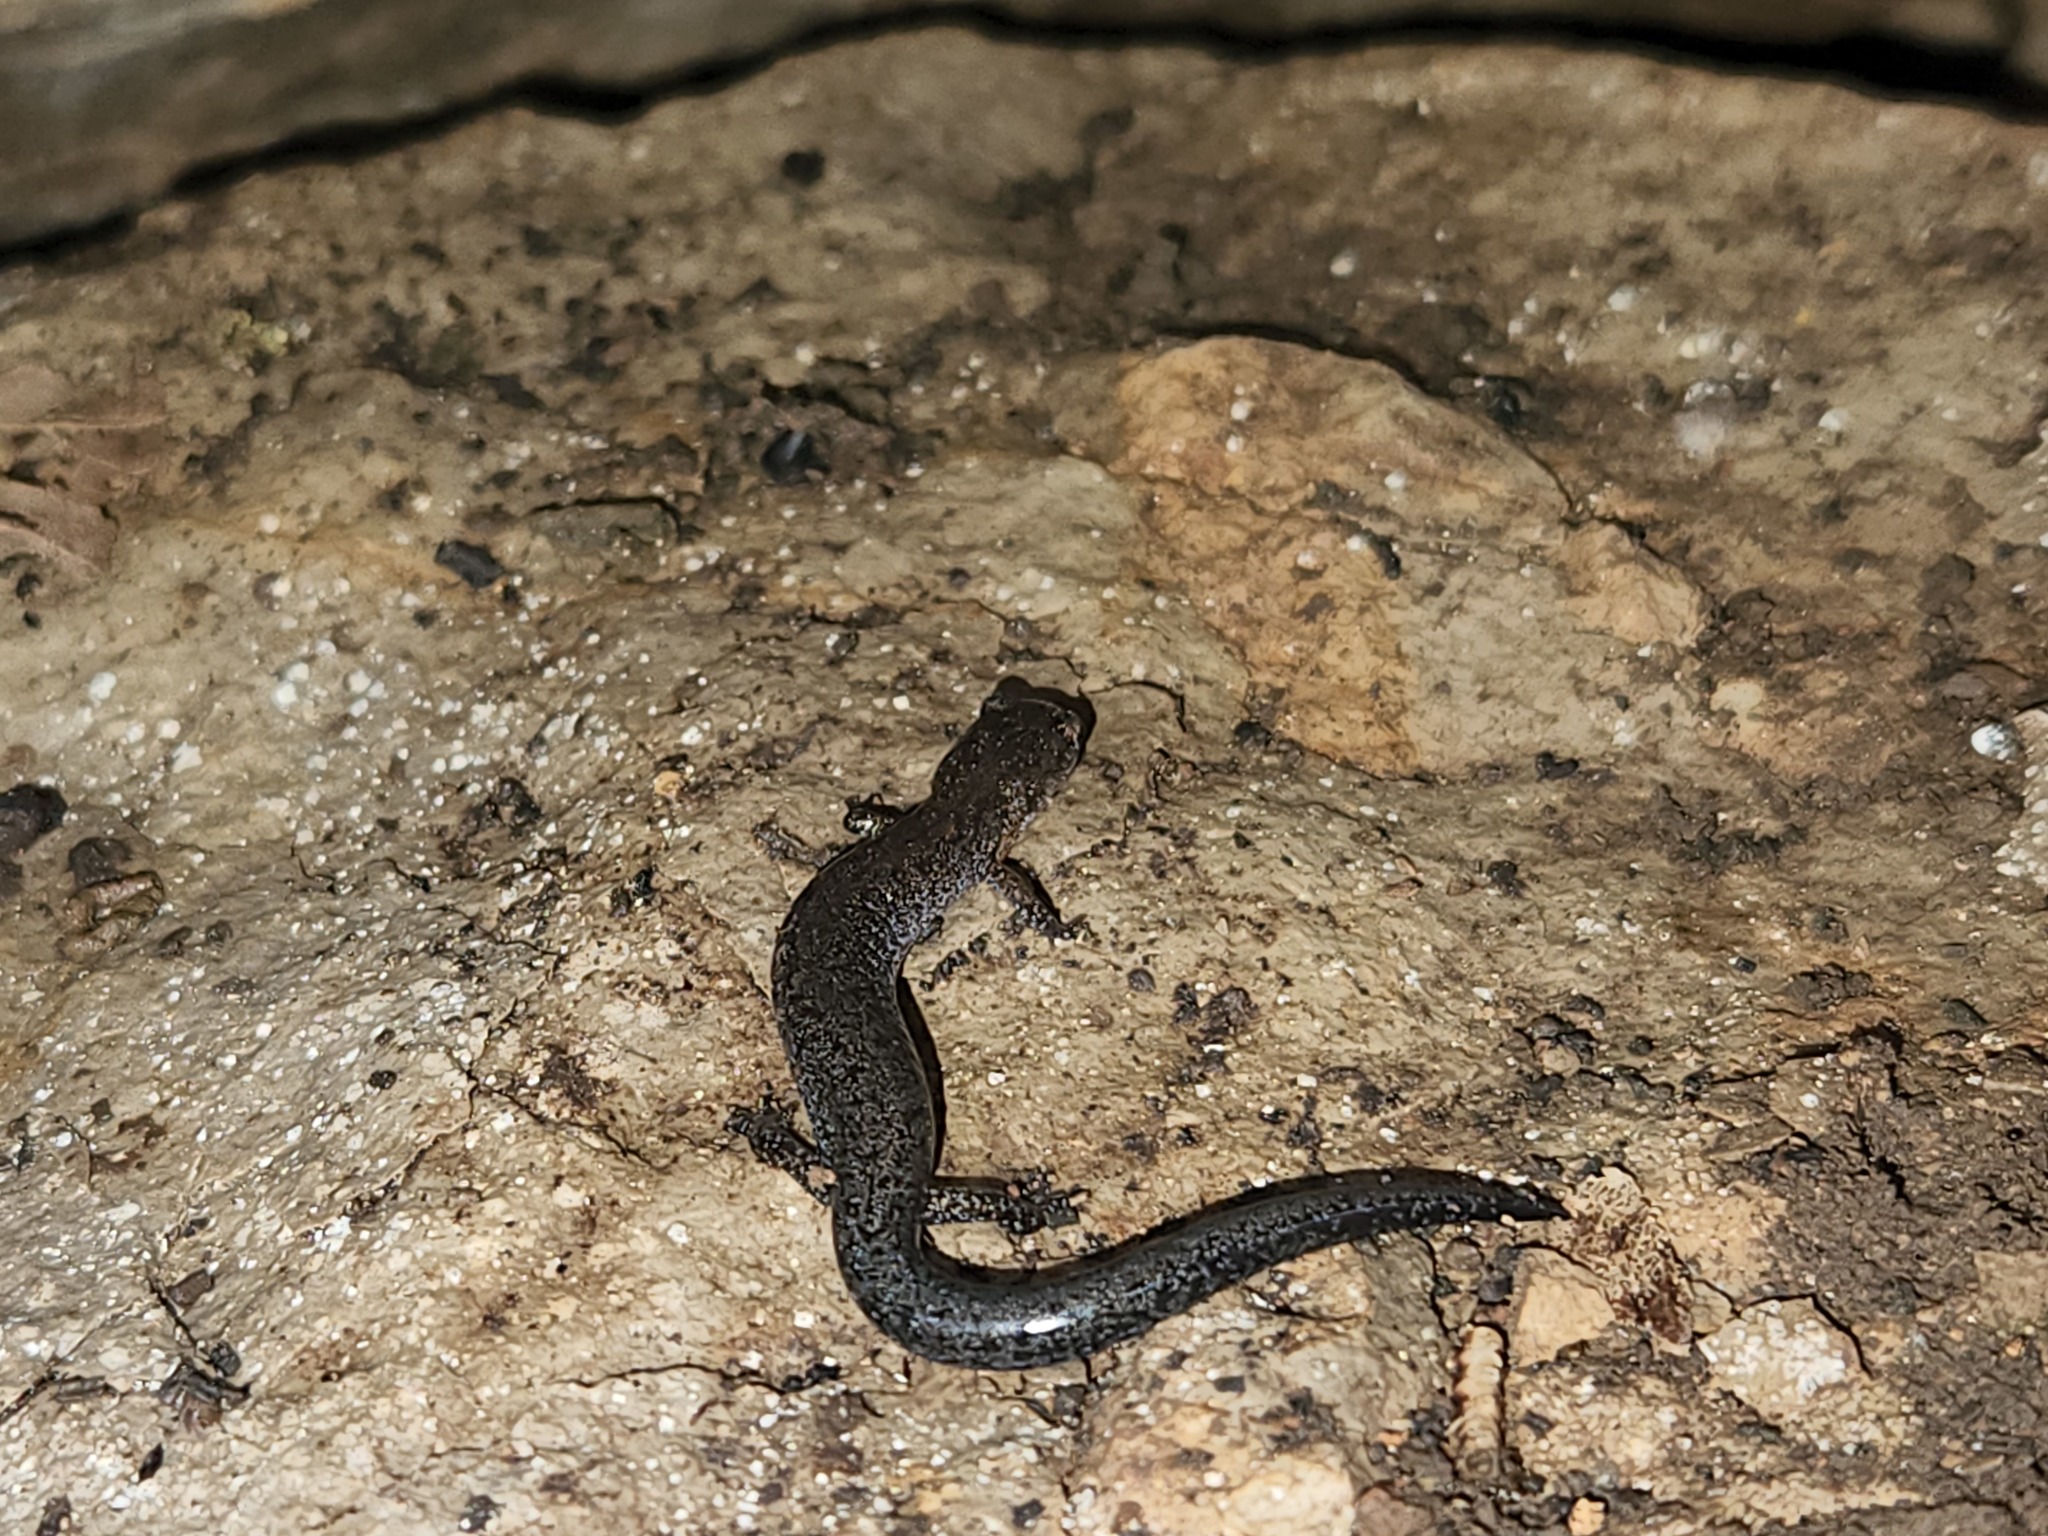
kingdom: Animalia
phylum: Chordata
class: Amphibia
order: Caudata
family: Plethodontidae
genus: Plethodon
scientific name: Plethodon dorsalis
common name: Northern zigzag salamander
